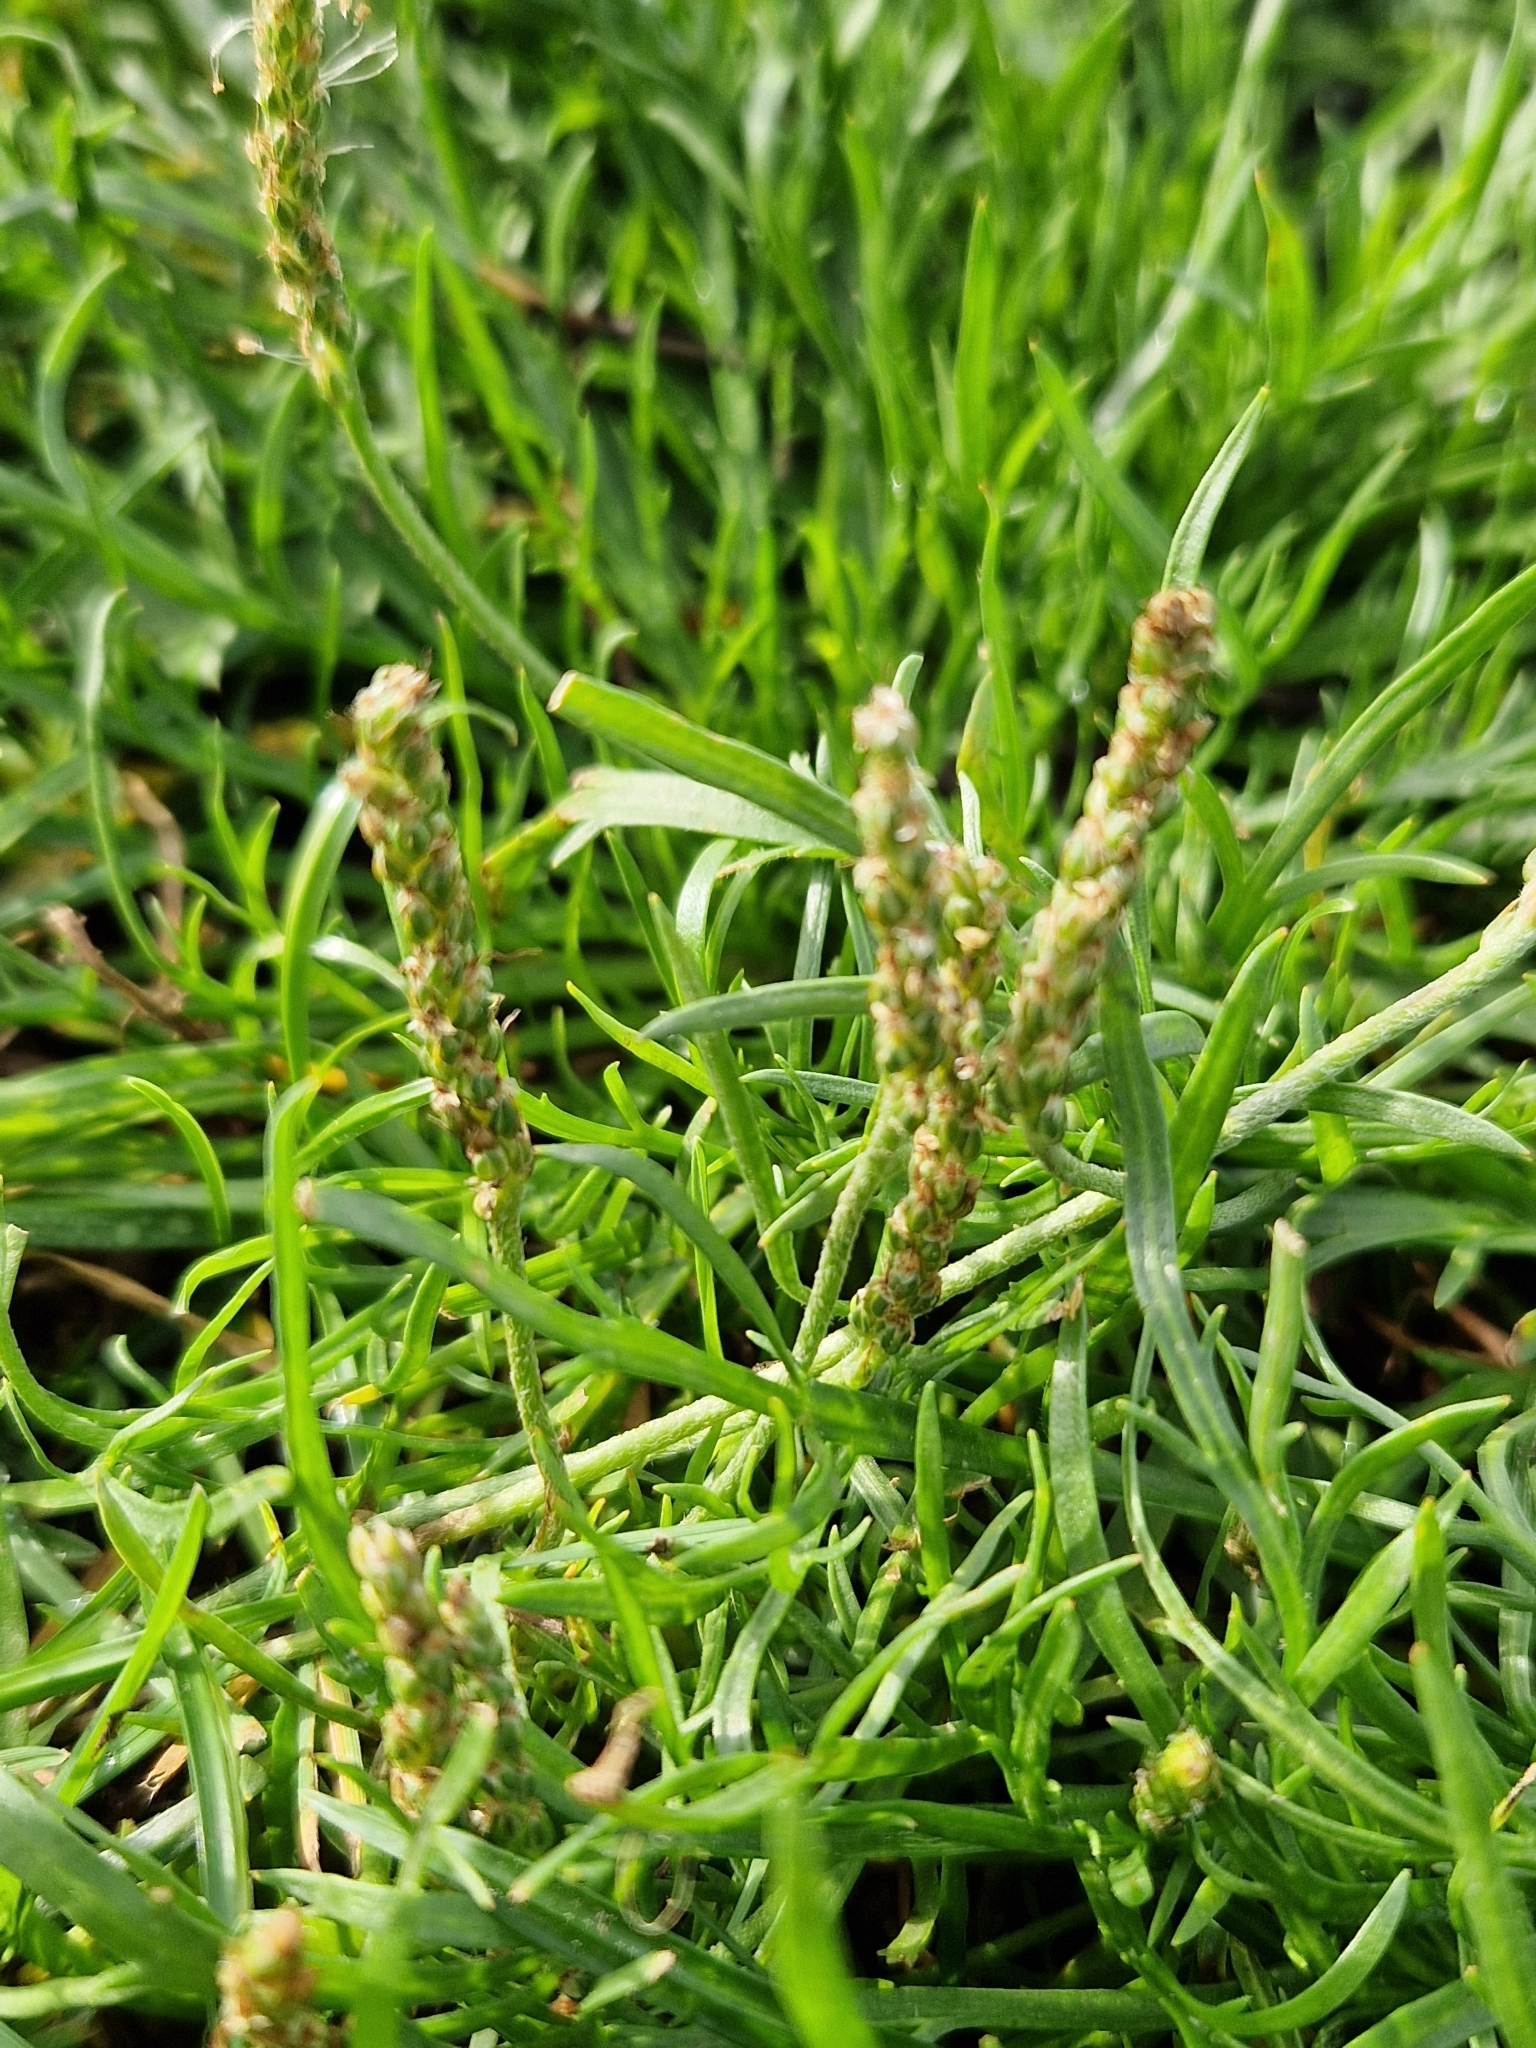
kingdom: Plantae
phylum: Tracheophyta
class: Magnoliopsida
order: Lamiales
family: Plantaginaceae
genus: Plantago
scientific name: Plantago coronopus
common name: Buck's-horn plantain
